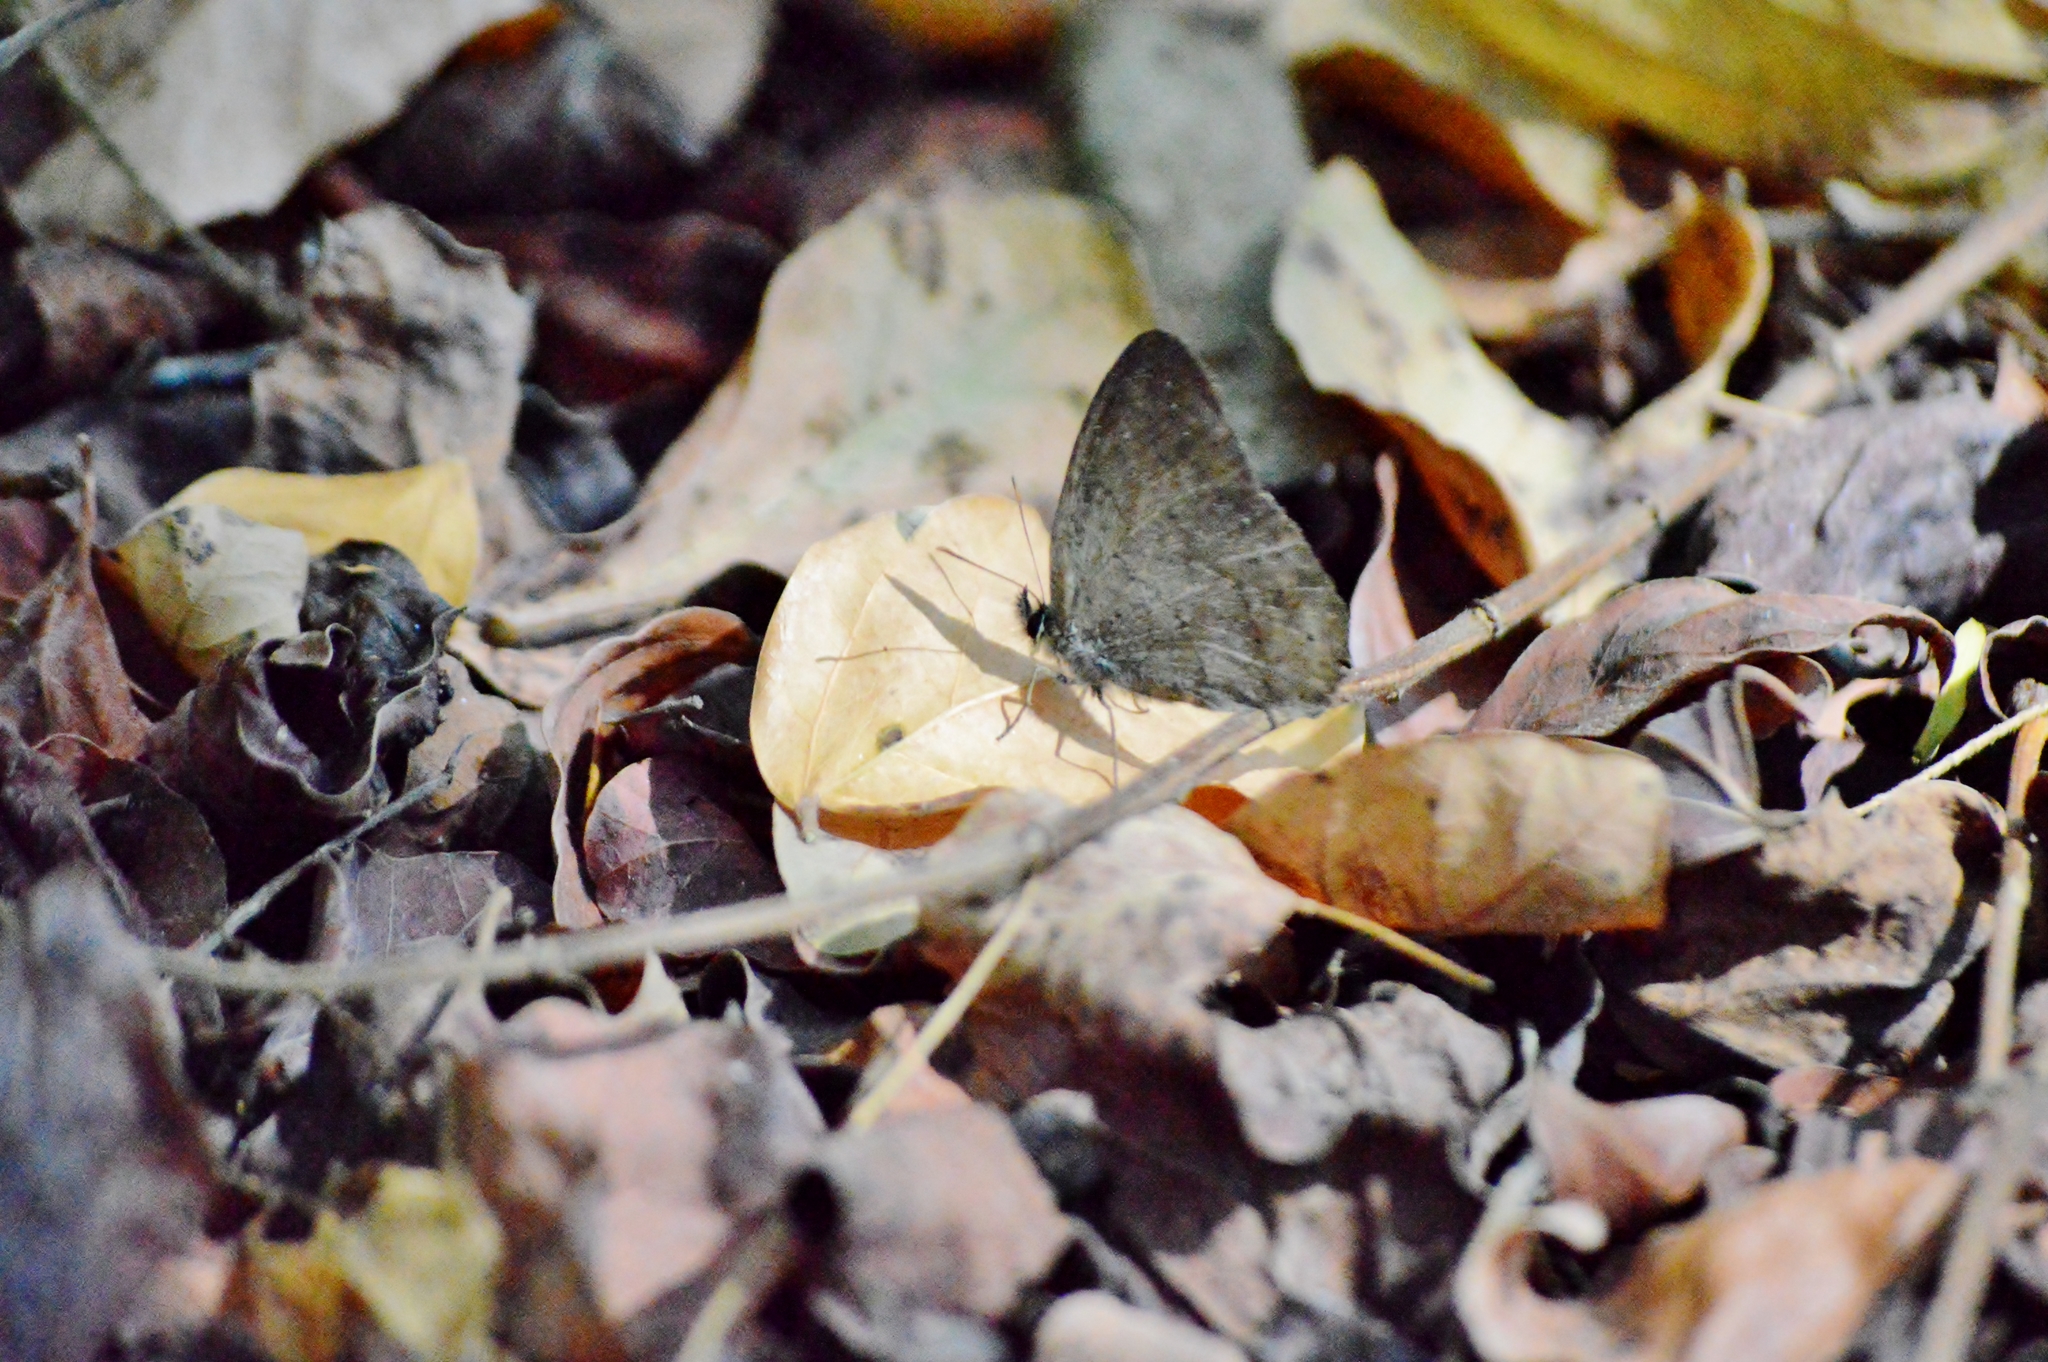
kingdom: Animalia
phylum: Arthropoda
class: Insecta
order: Lepidoptera
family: Nymphalidae
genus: Euptychia
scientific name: Euptychia
